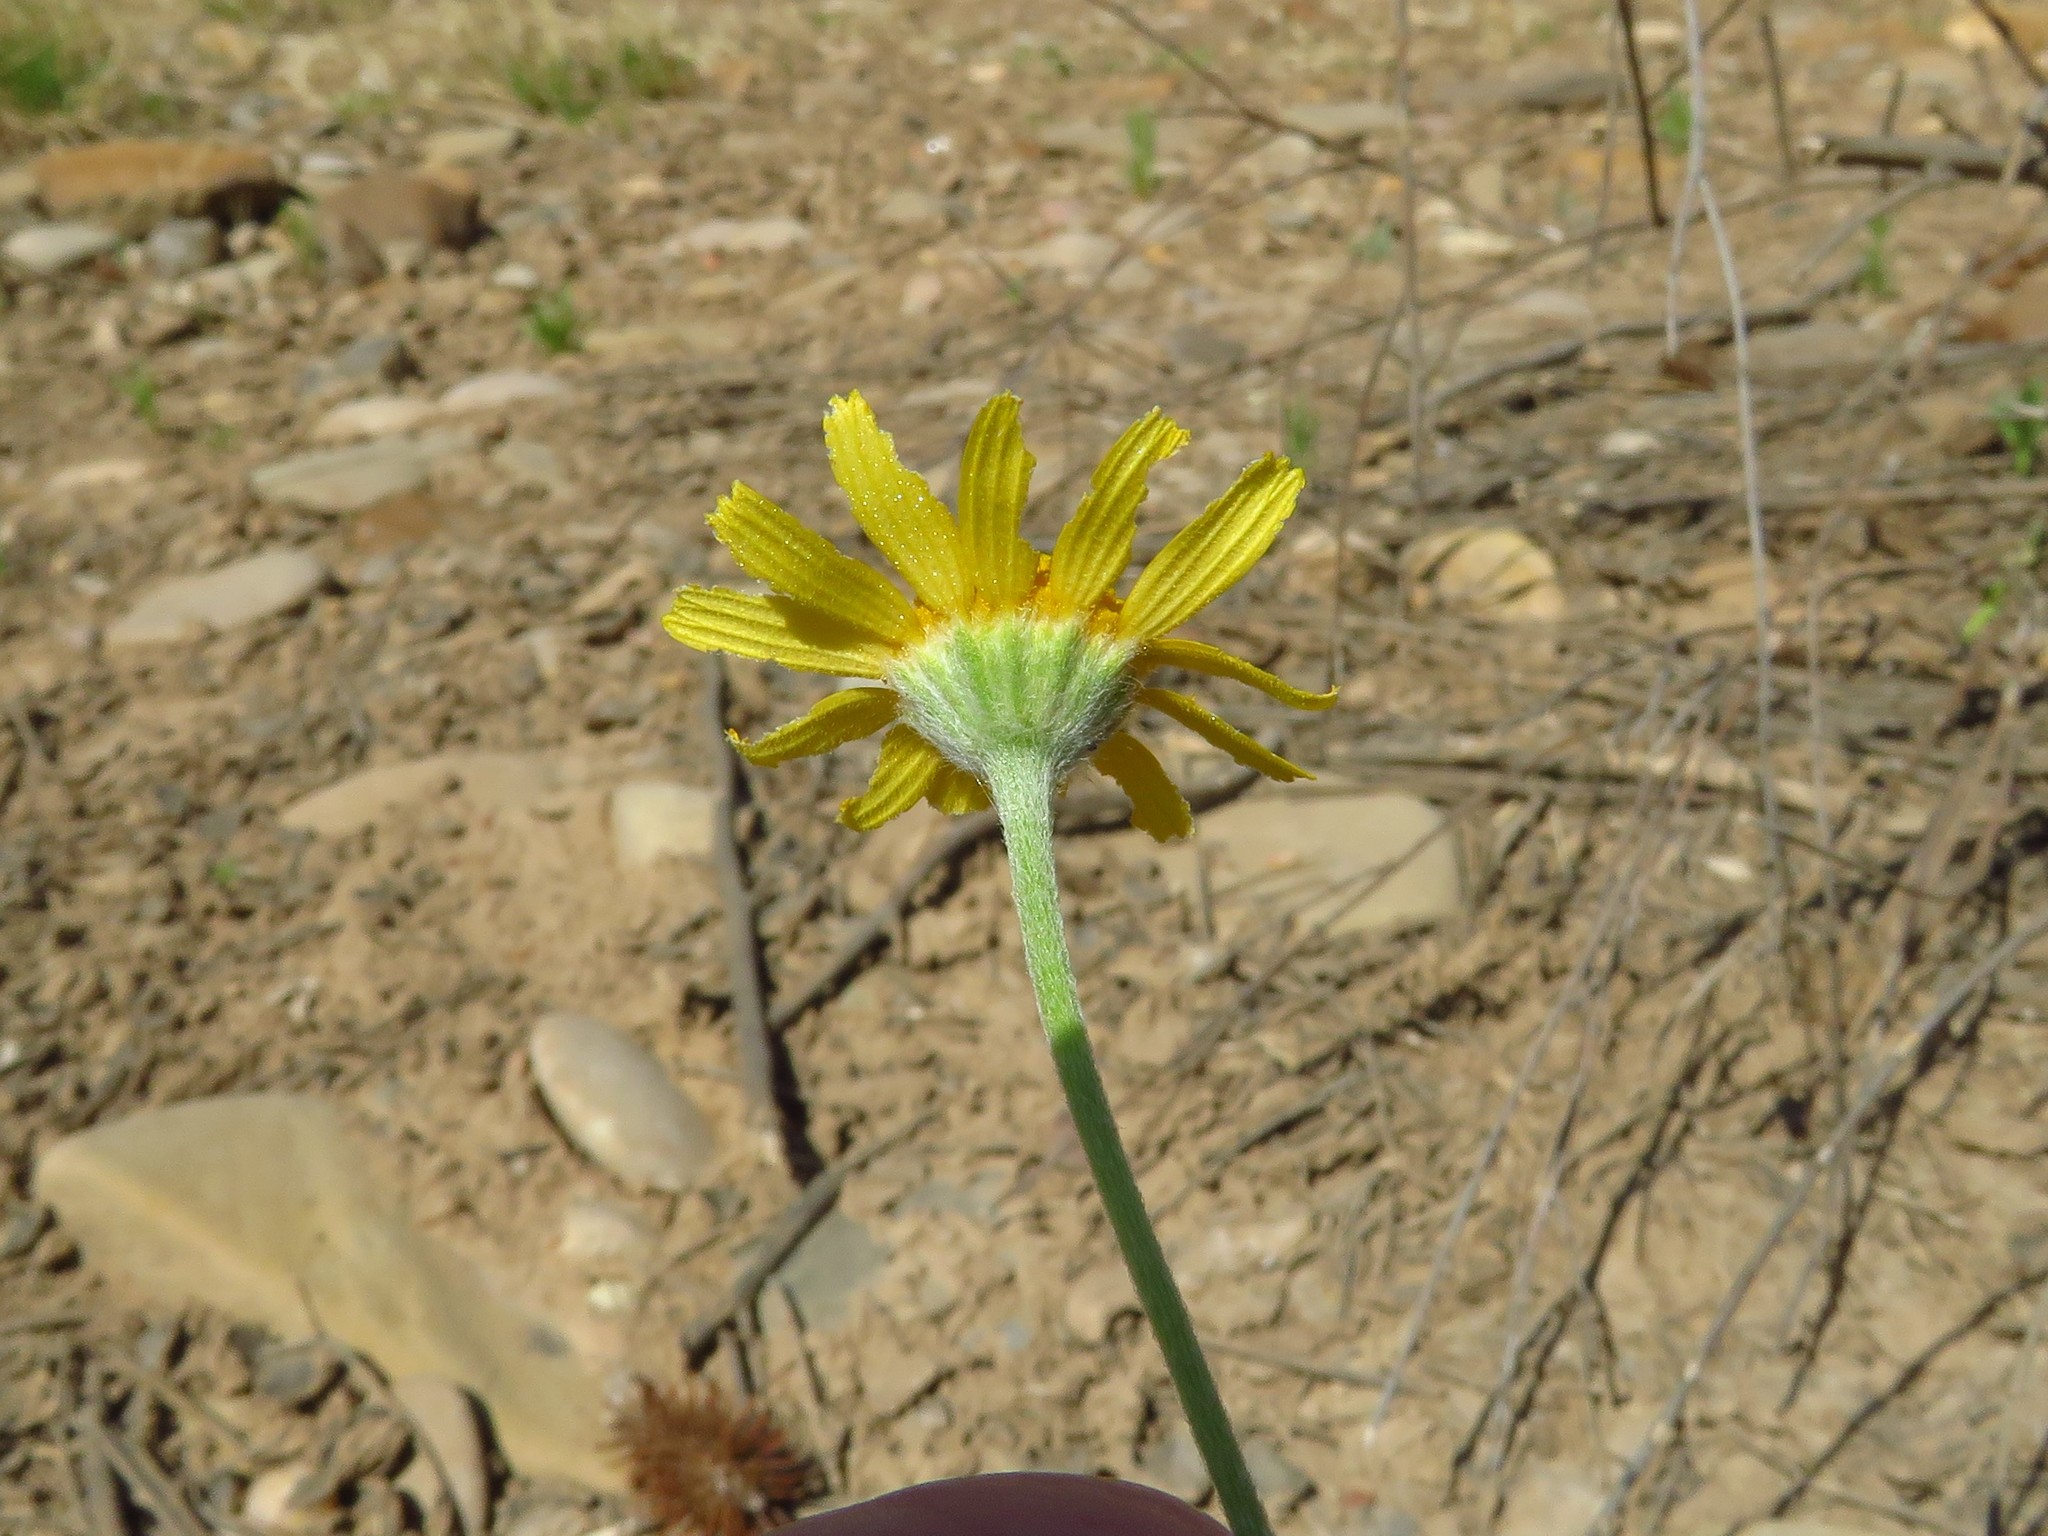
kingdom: Plantae
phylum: Tracheophyta
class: Magnoliopsida
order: Asterales
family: Asteraceae
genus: Tetraneuris
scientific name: Tetraneuris linearifolia
